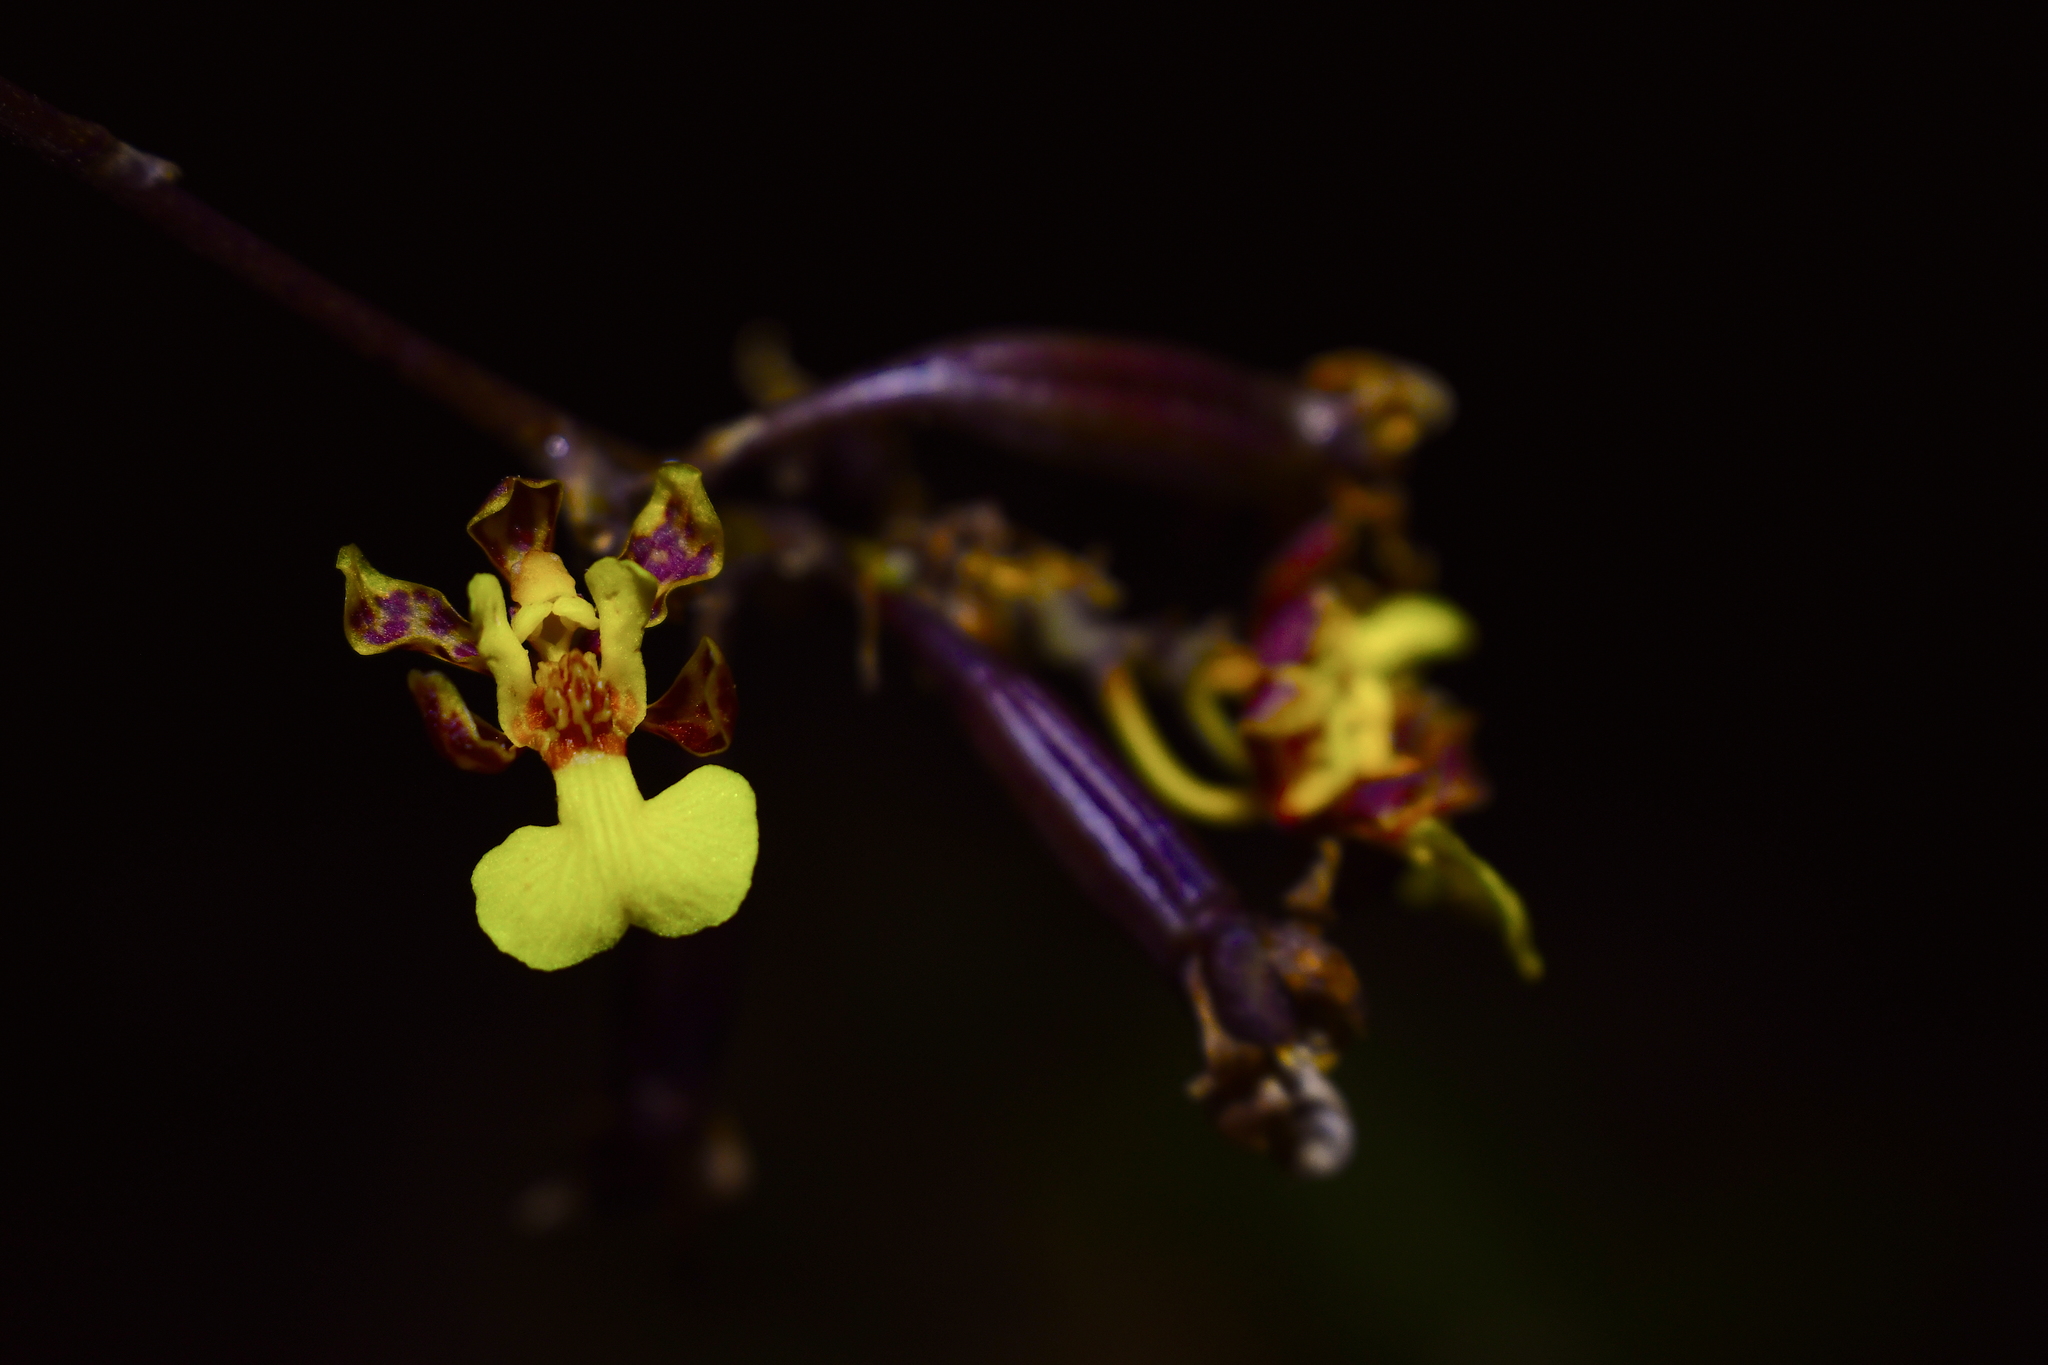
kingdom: Plantae
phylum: Tracheophyta
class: Liliopsida
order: Asparagales
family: Orchidaceae
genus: Trichocentrum
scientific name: Trichocentrum ascendens
